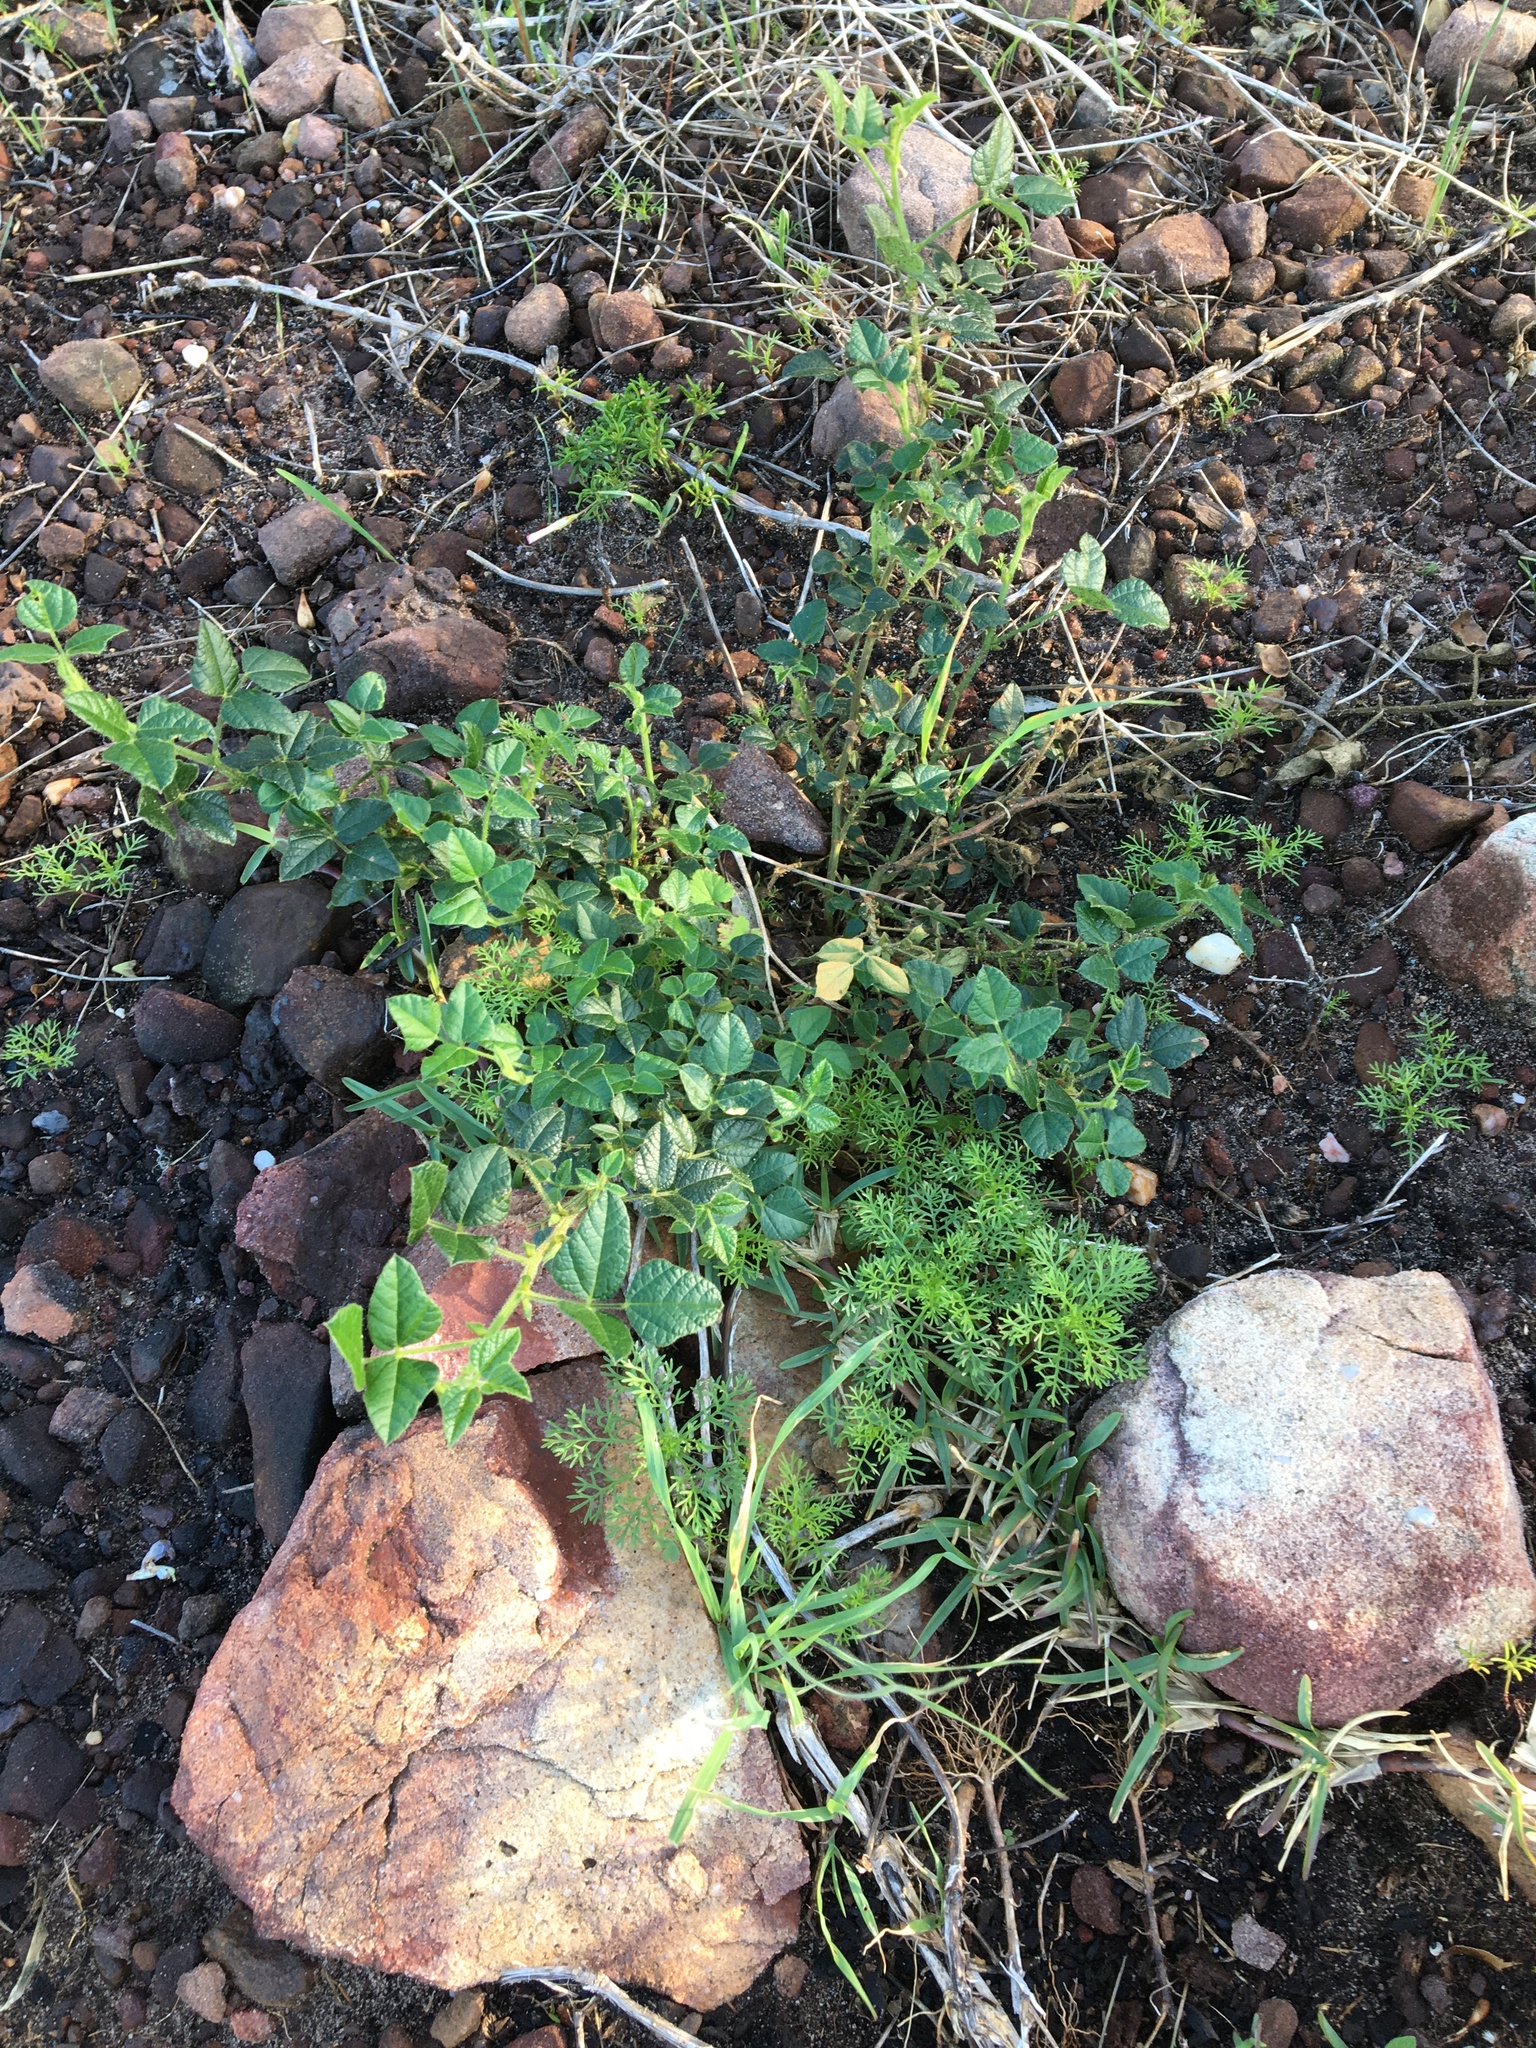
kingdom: Plantae
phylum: Tracheophyta
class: Magnoliopsida
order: Fabales
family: Fabaceae
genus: Bolusafra
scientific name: Bolusafra bituminosa
